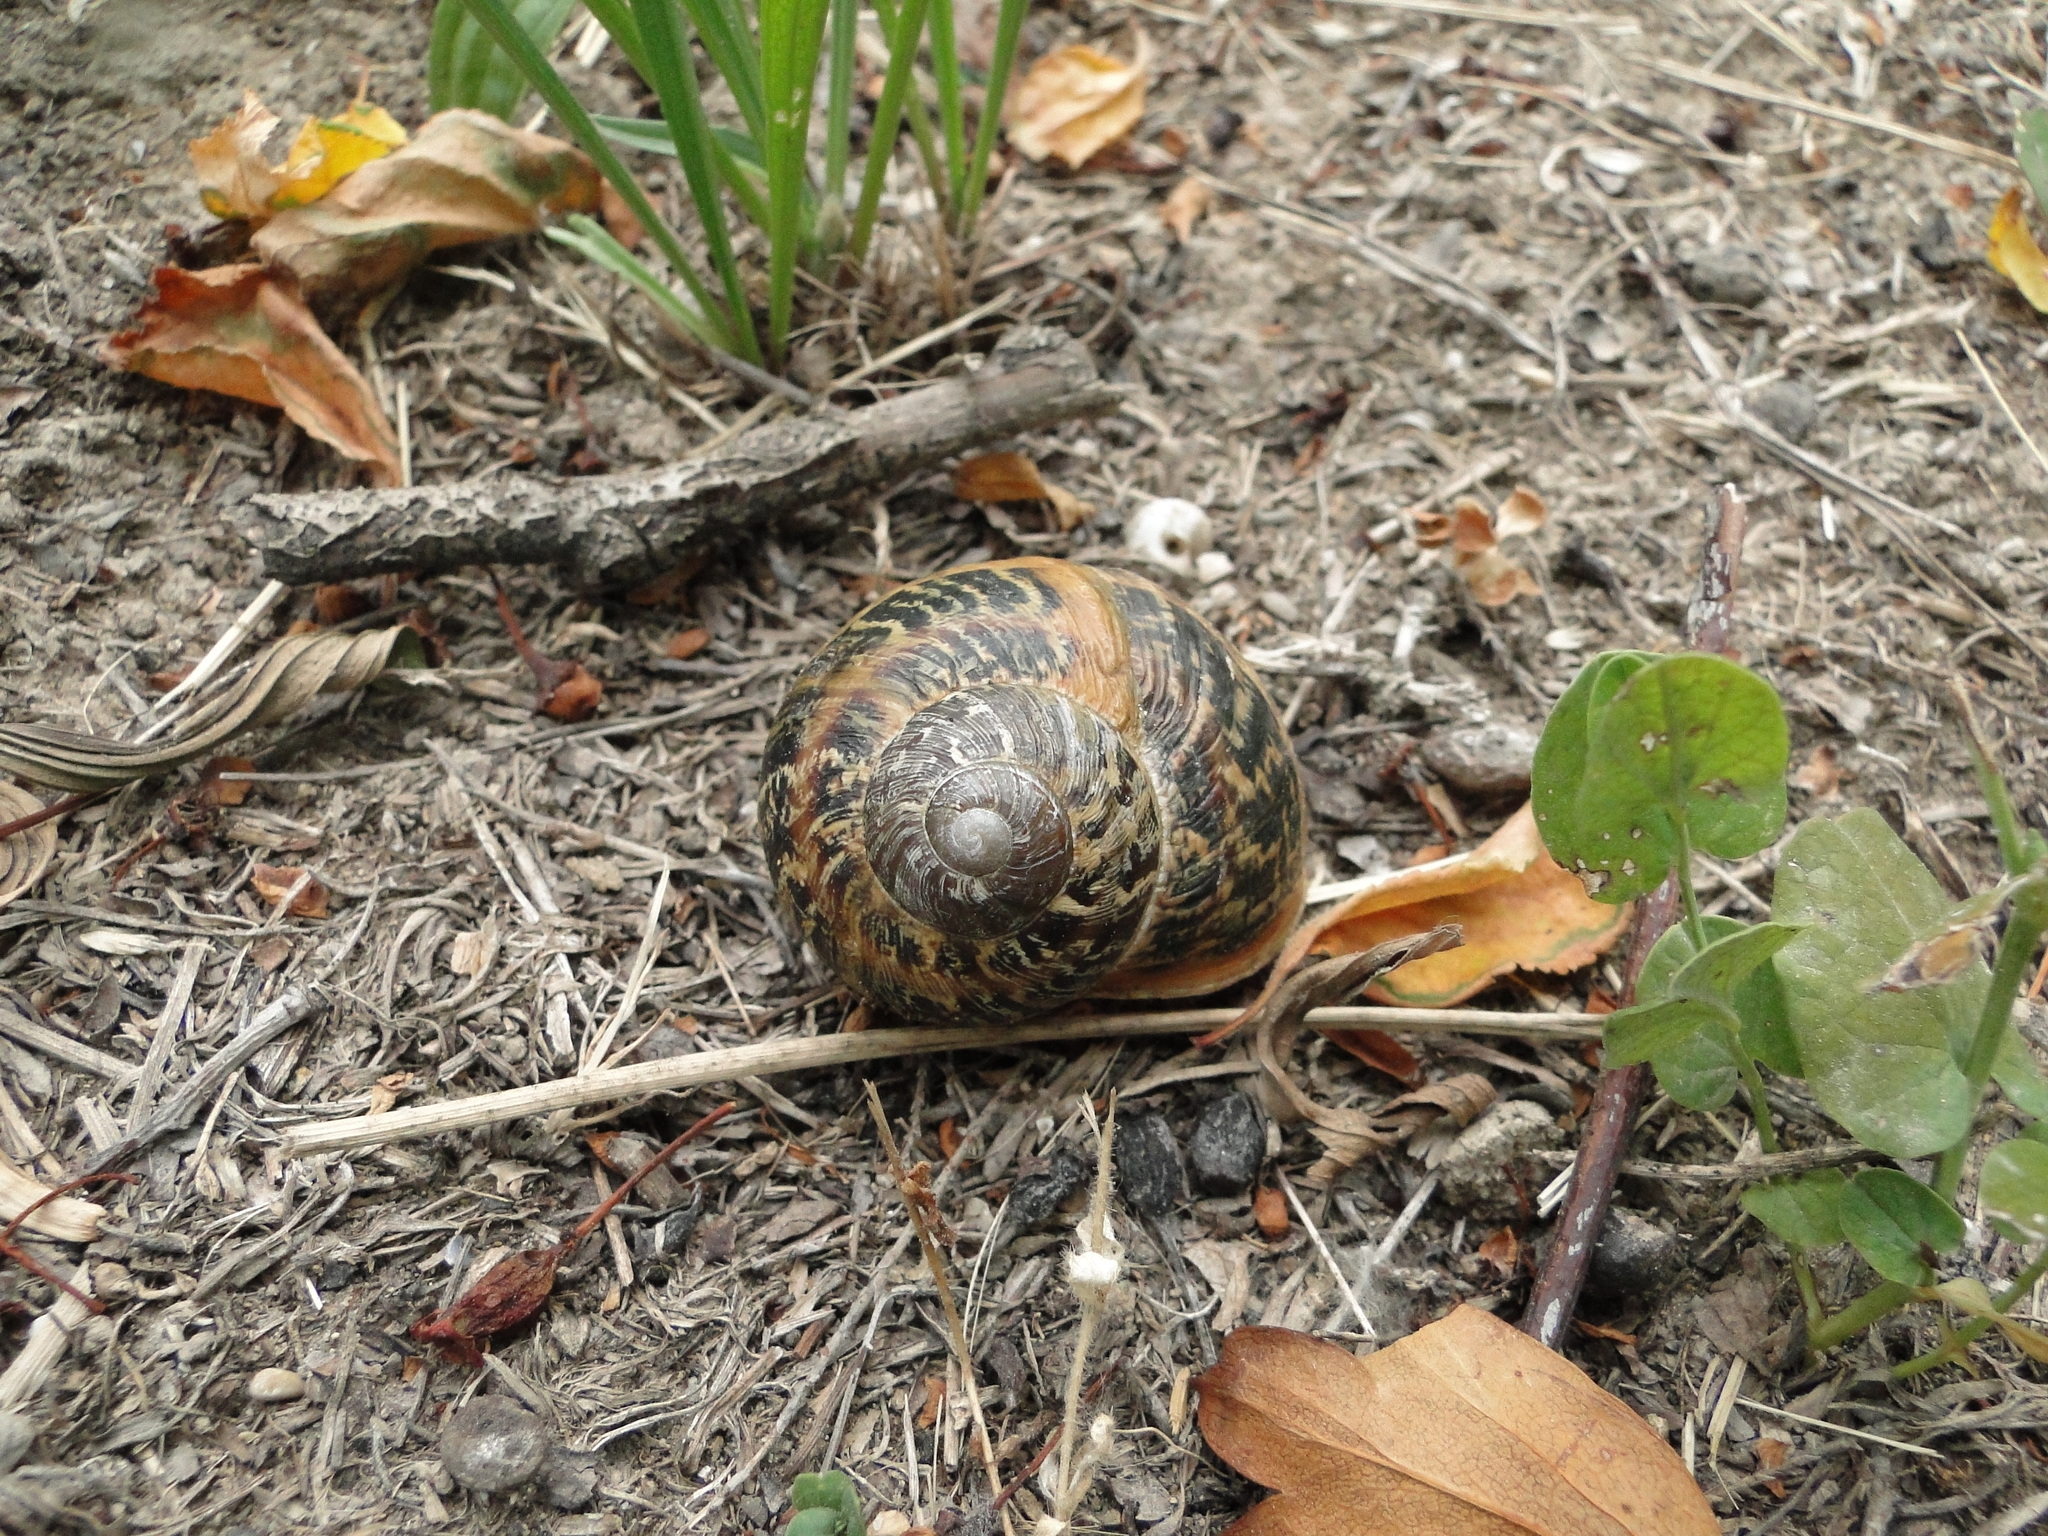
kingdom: Animalia
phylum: Mollusca
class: Gastropoda
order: Stylommatophora
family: Helicidae
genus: Cornu
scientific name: Cornu aspersum
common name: Brown garden snail
